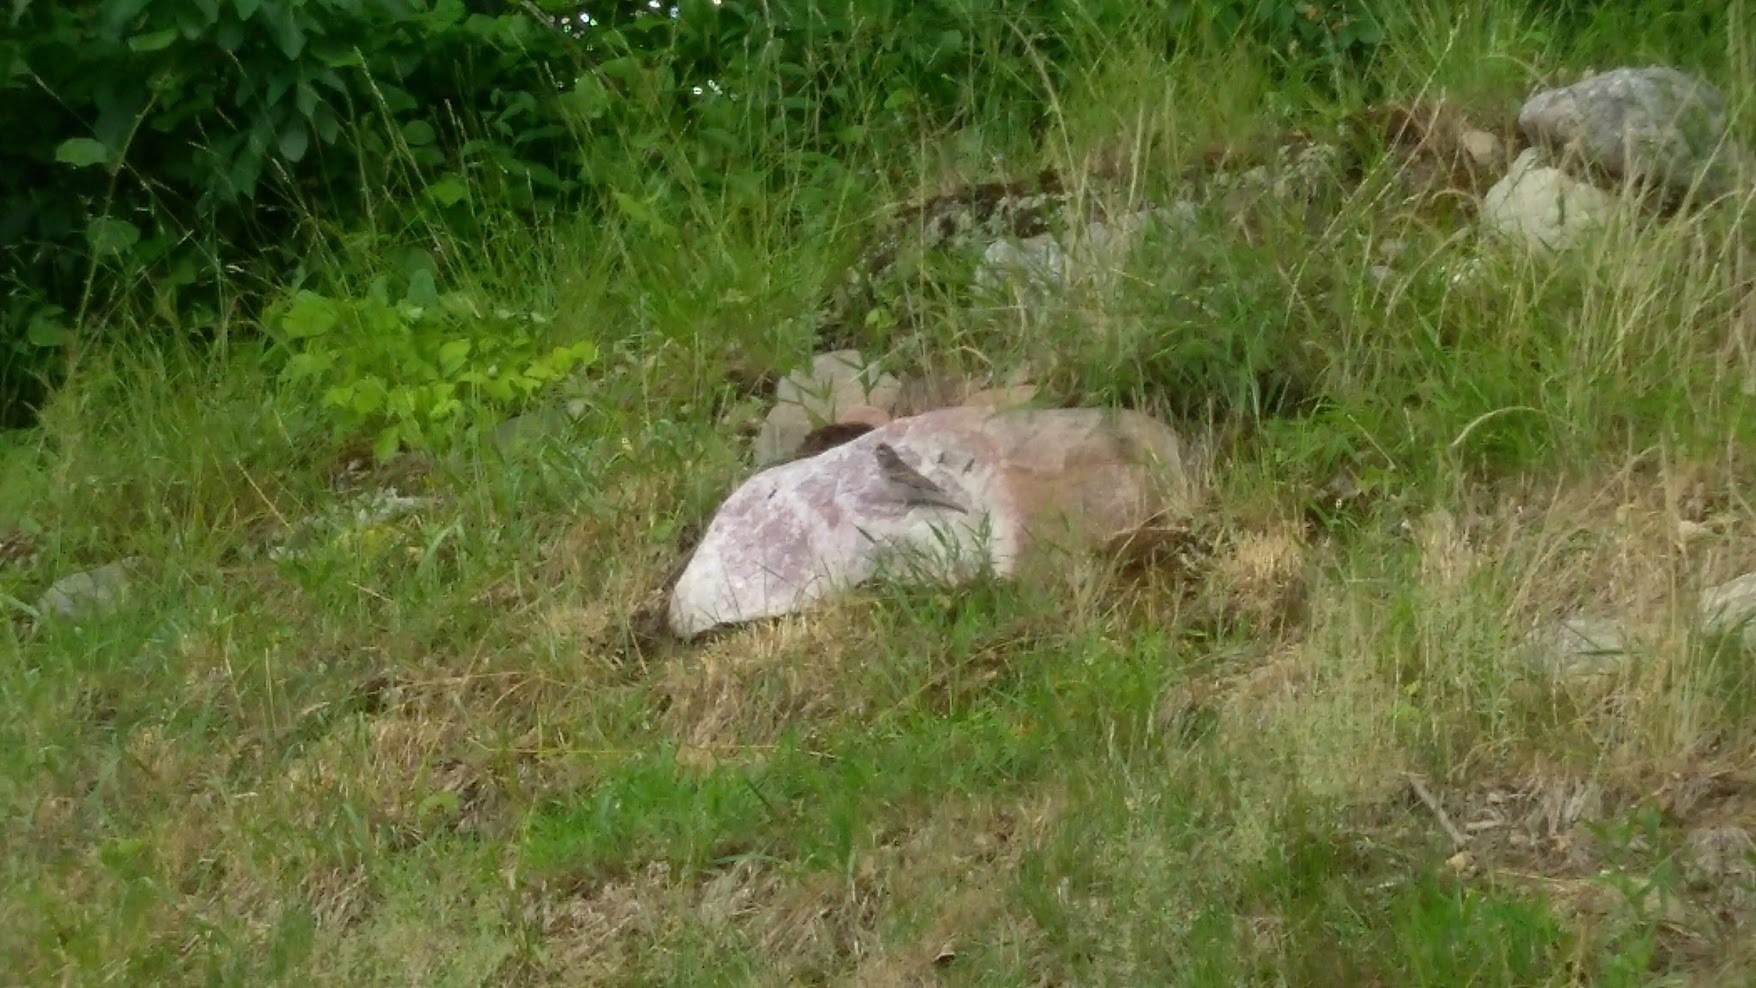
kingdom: Animalia
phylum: Chordata
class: Aves
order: Passeriformes
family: Passerellidae
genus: Spizella
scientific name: Spizella passerina
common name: Chipping sparrow
